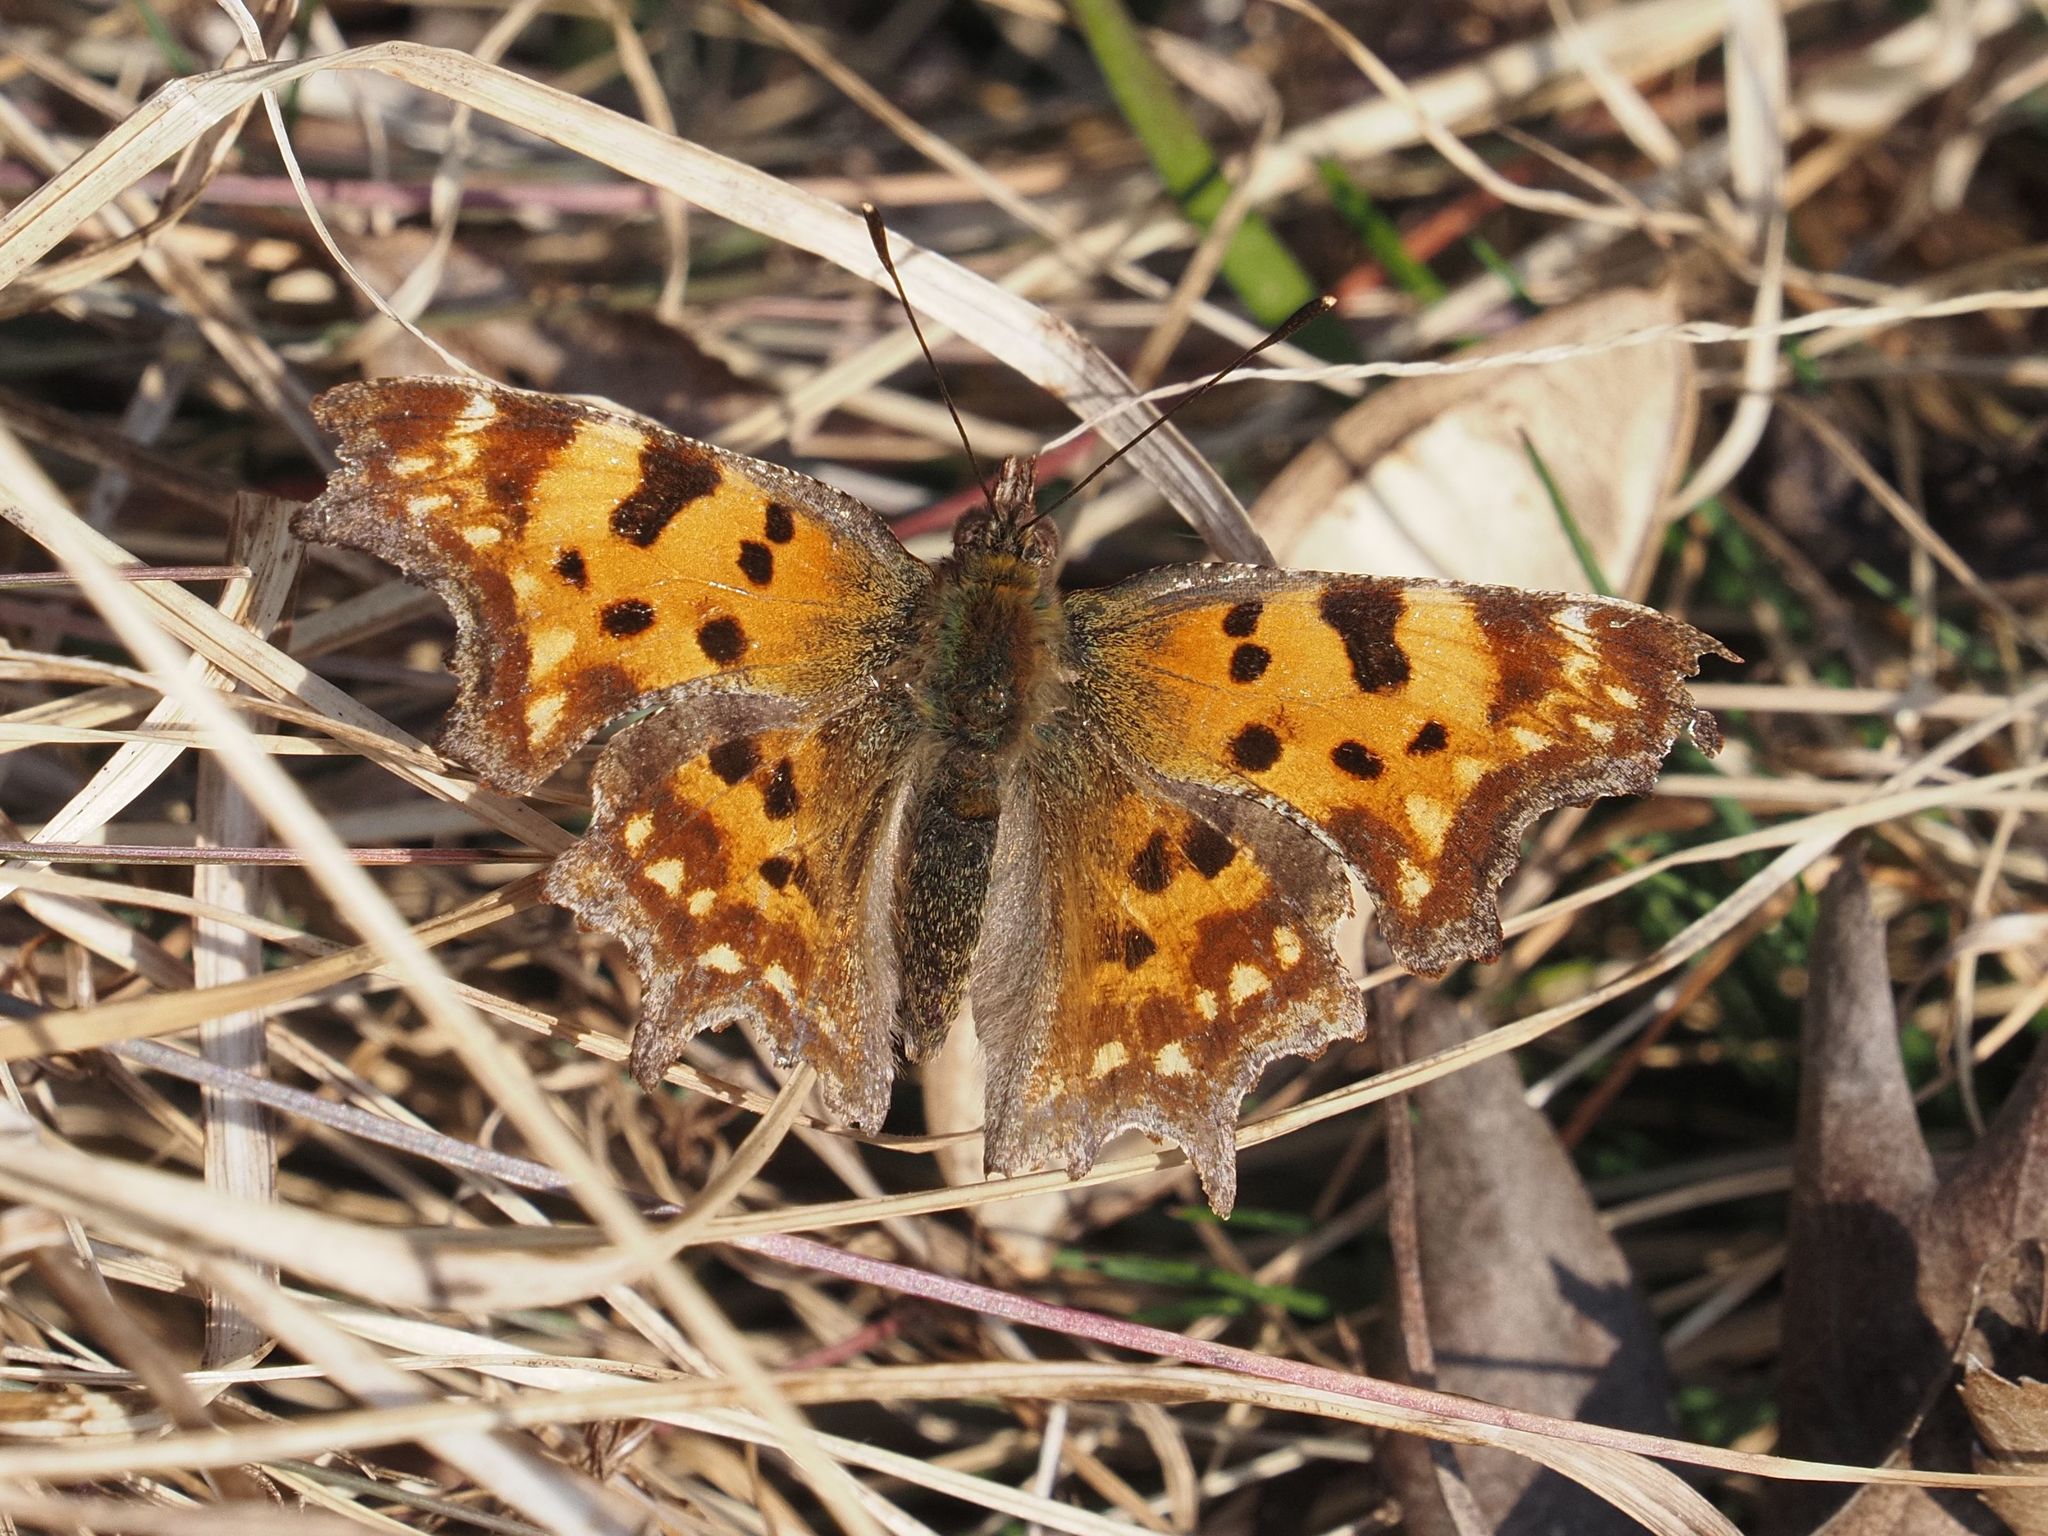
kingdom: Animalia
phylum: Arthropoda
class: Insecta
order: Lepidoptera
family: Nymphalidae
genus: Polygonia
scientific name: Polygonia c-album
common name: Comma
